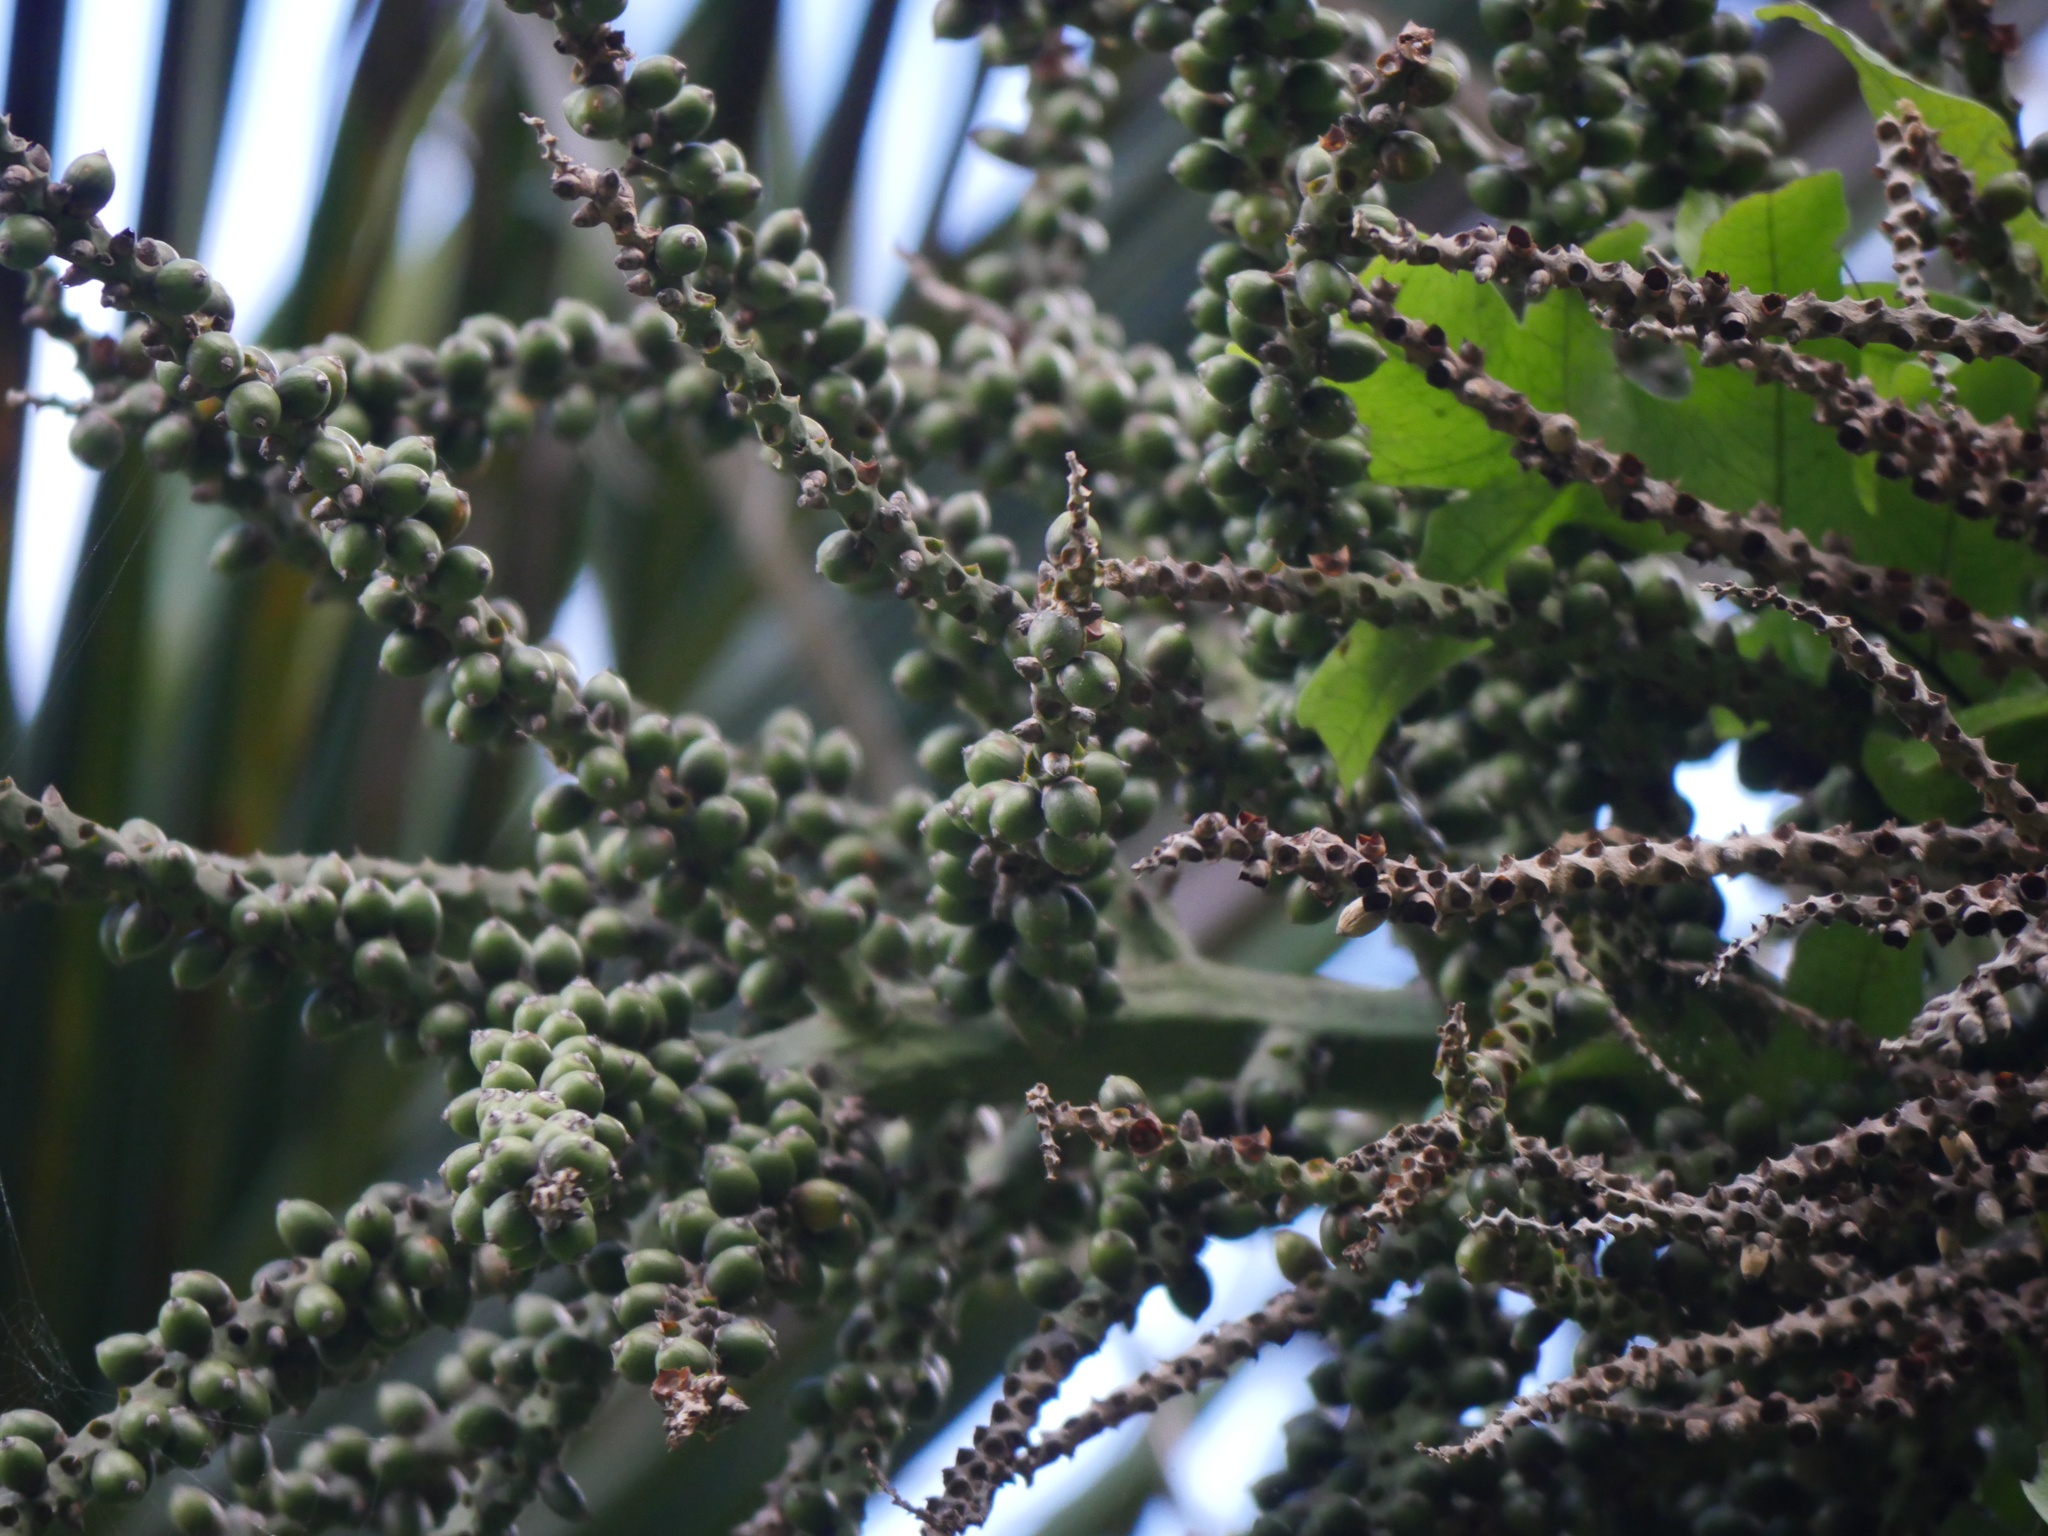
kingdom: Plantae
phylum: Tracheophyta
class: Liliopsida
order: Arecales
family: Arecaceae
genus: Rhopalostylis
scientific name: Rhopalostylis sapida
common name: Feather-duster palm
